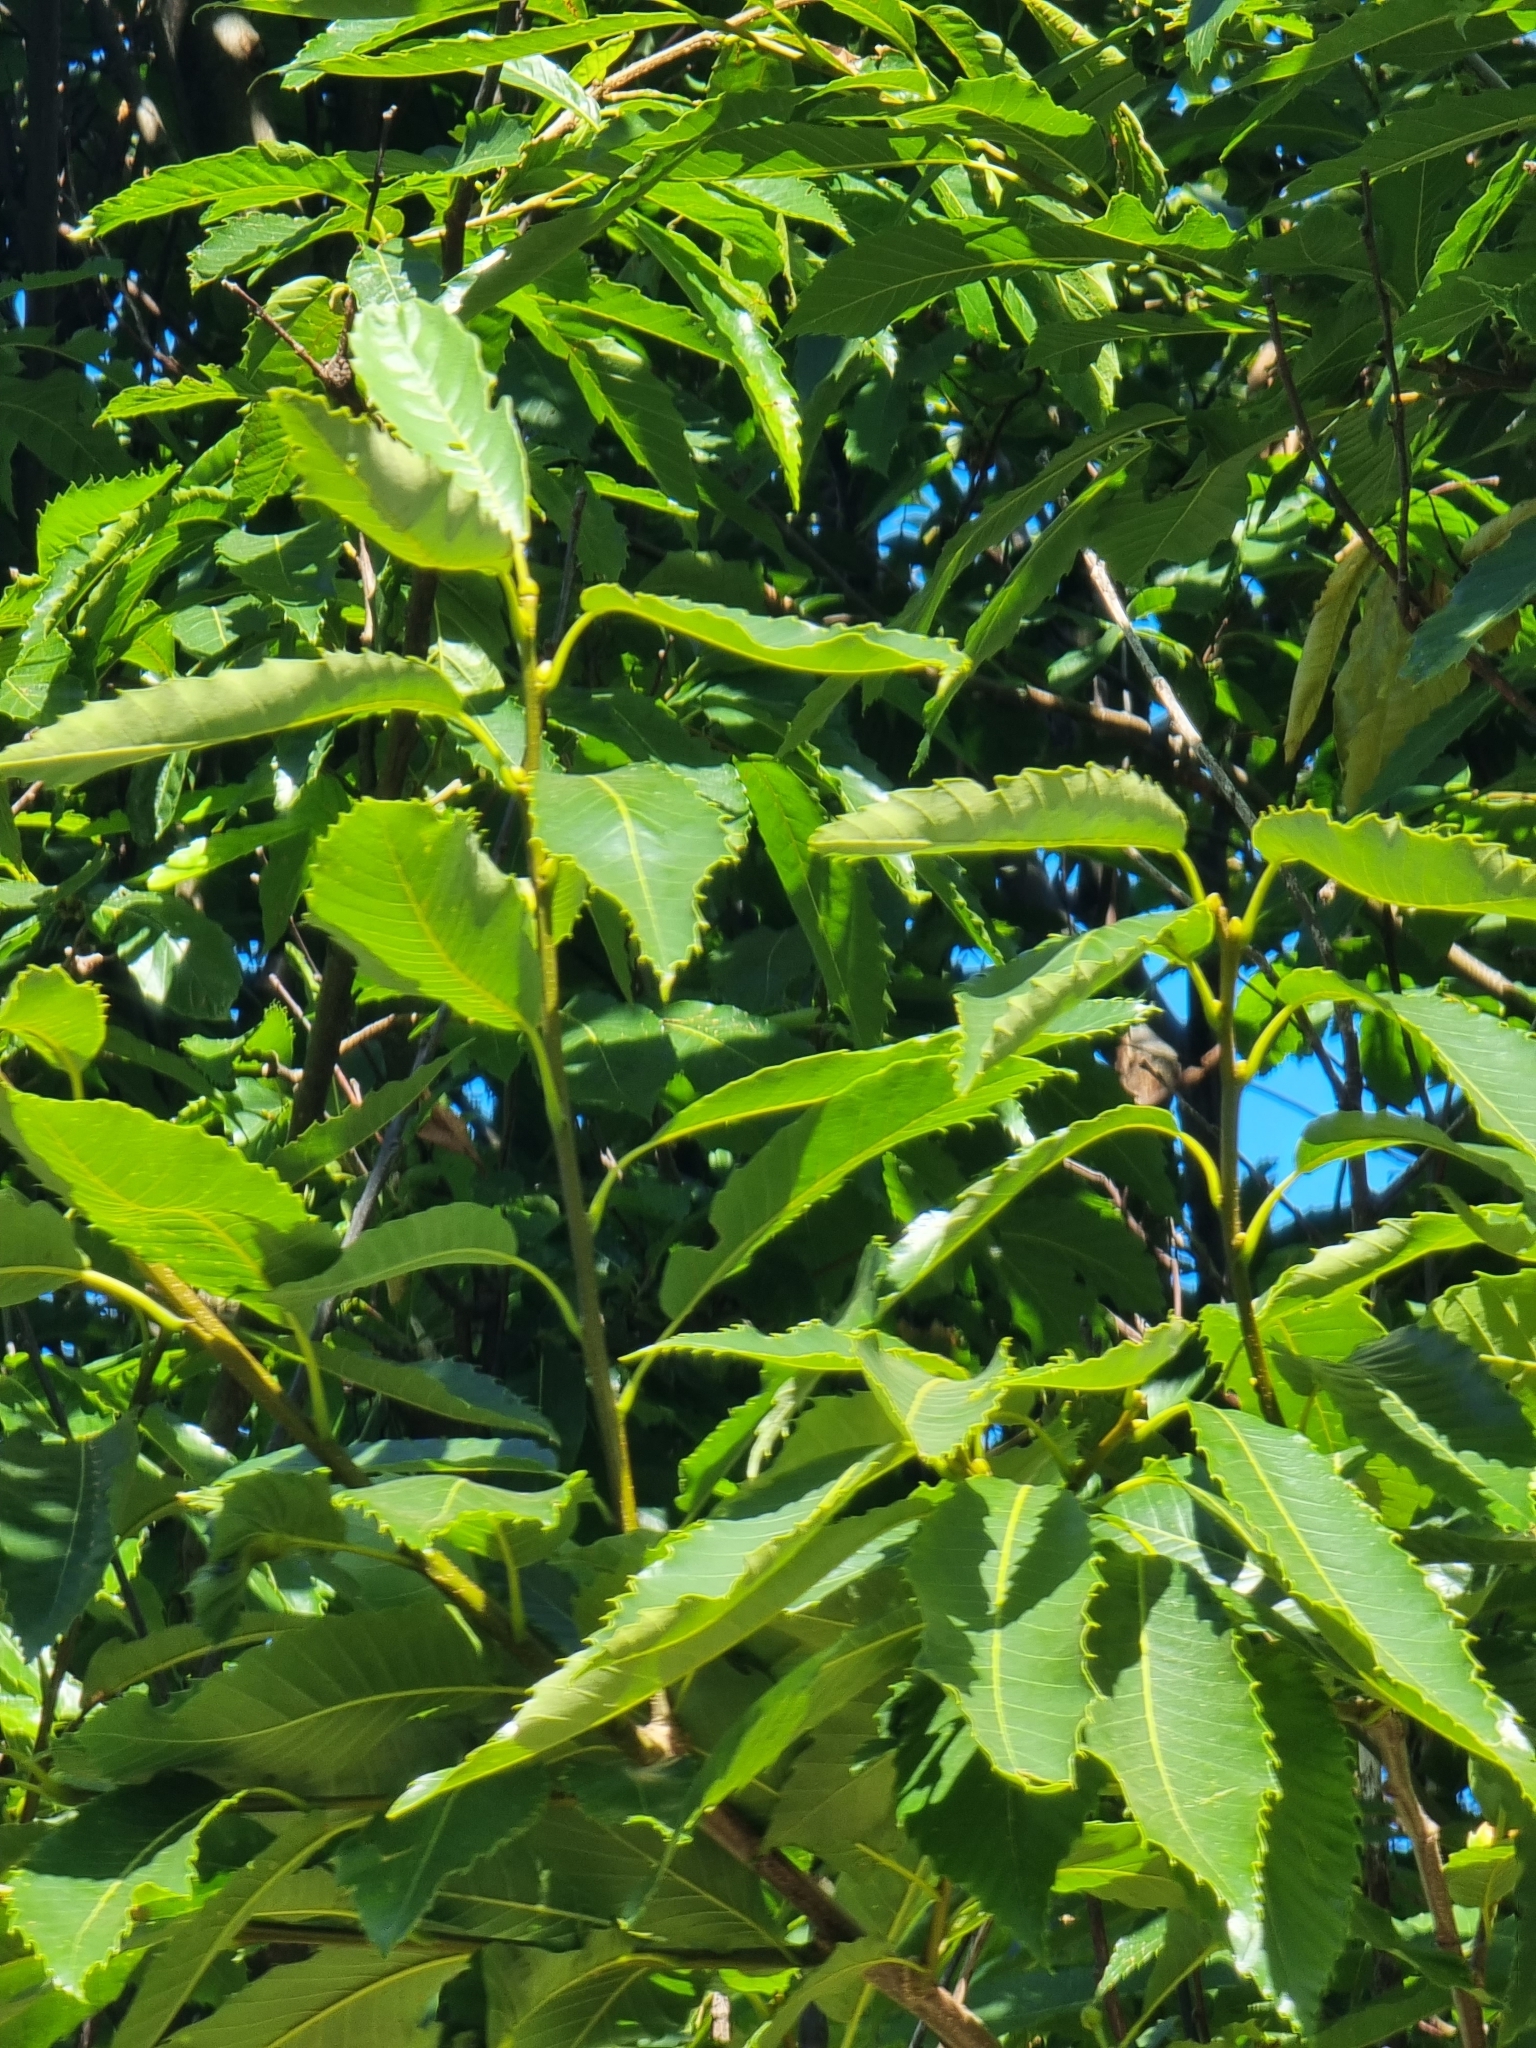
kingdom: Plantae
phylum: Tracheophyta
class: Magnoliopsida
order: Fagales
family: Fagaceae
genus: Castanea
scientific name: Castanea sativa
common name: Sweet chestnut
